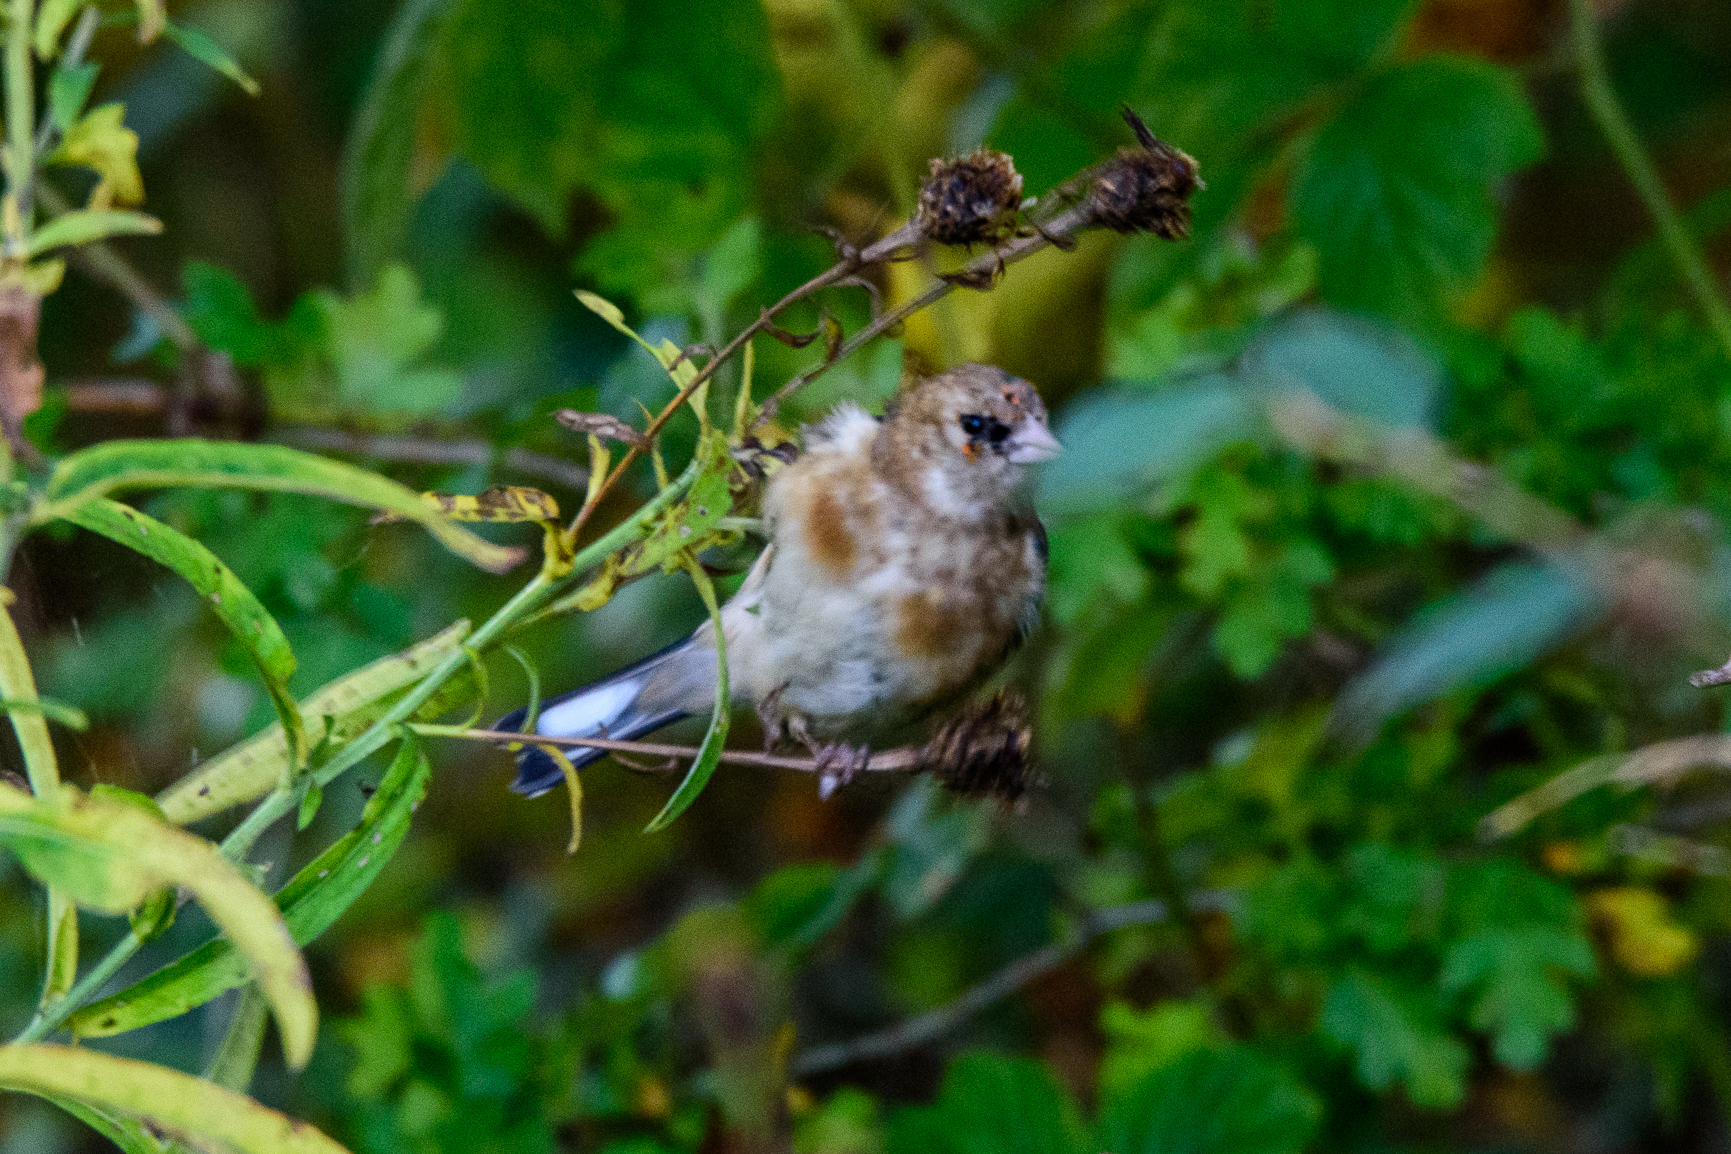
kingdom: Animalia
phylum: Chordata
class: Aves
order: Passeriformes
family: Fringillidae
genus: Carduelis
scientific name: Carduelis carduelis
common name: European goldfinch
